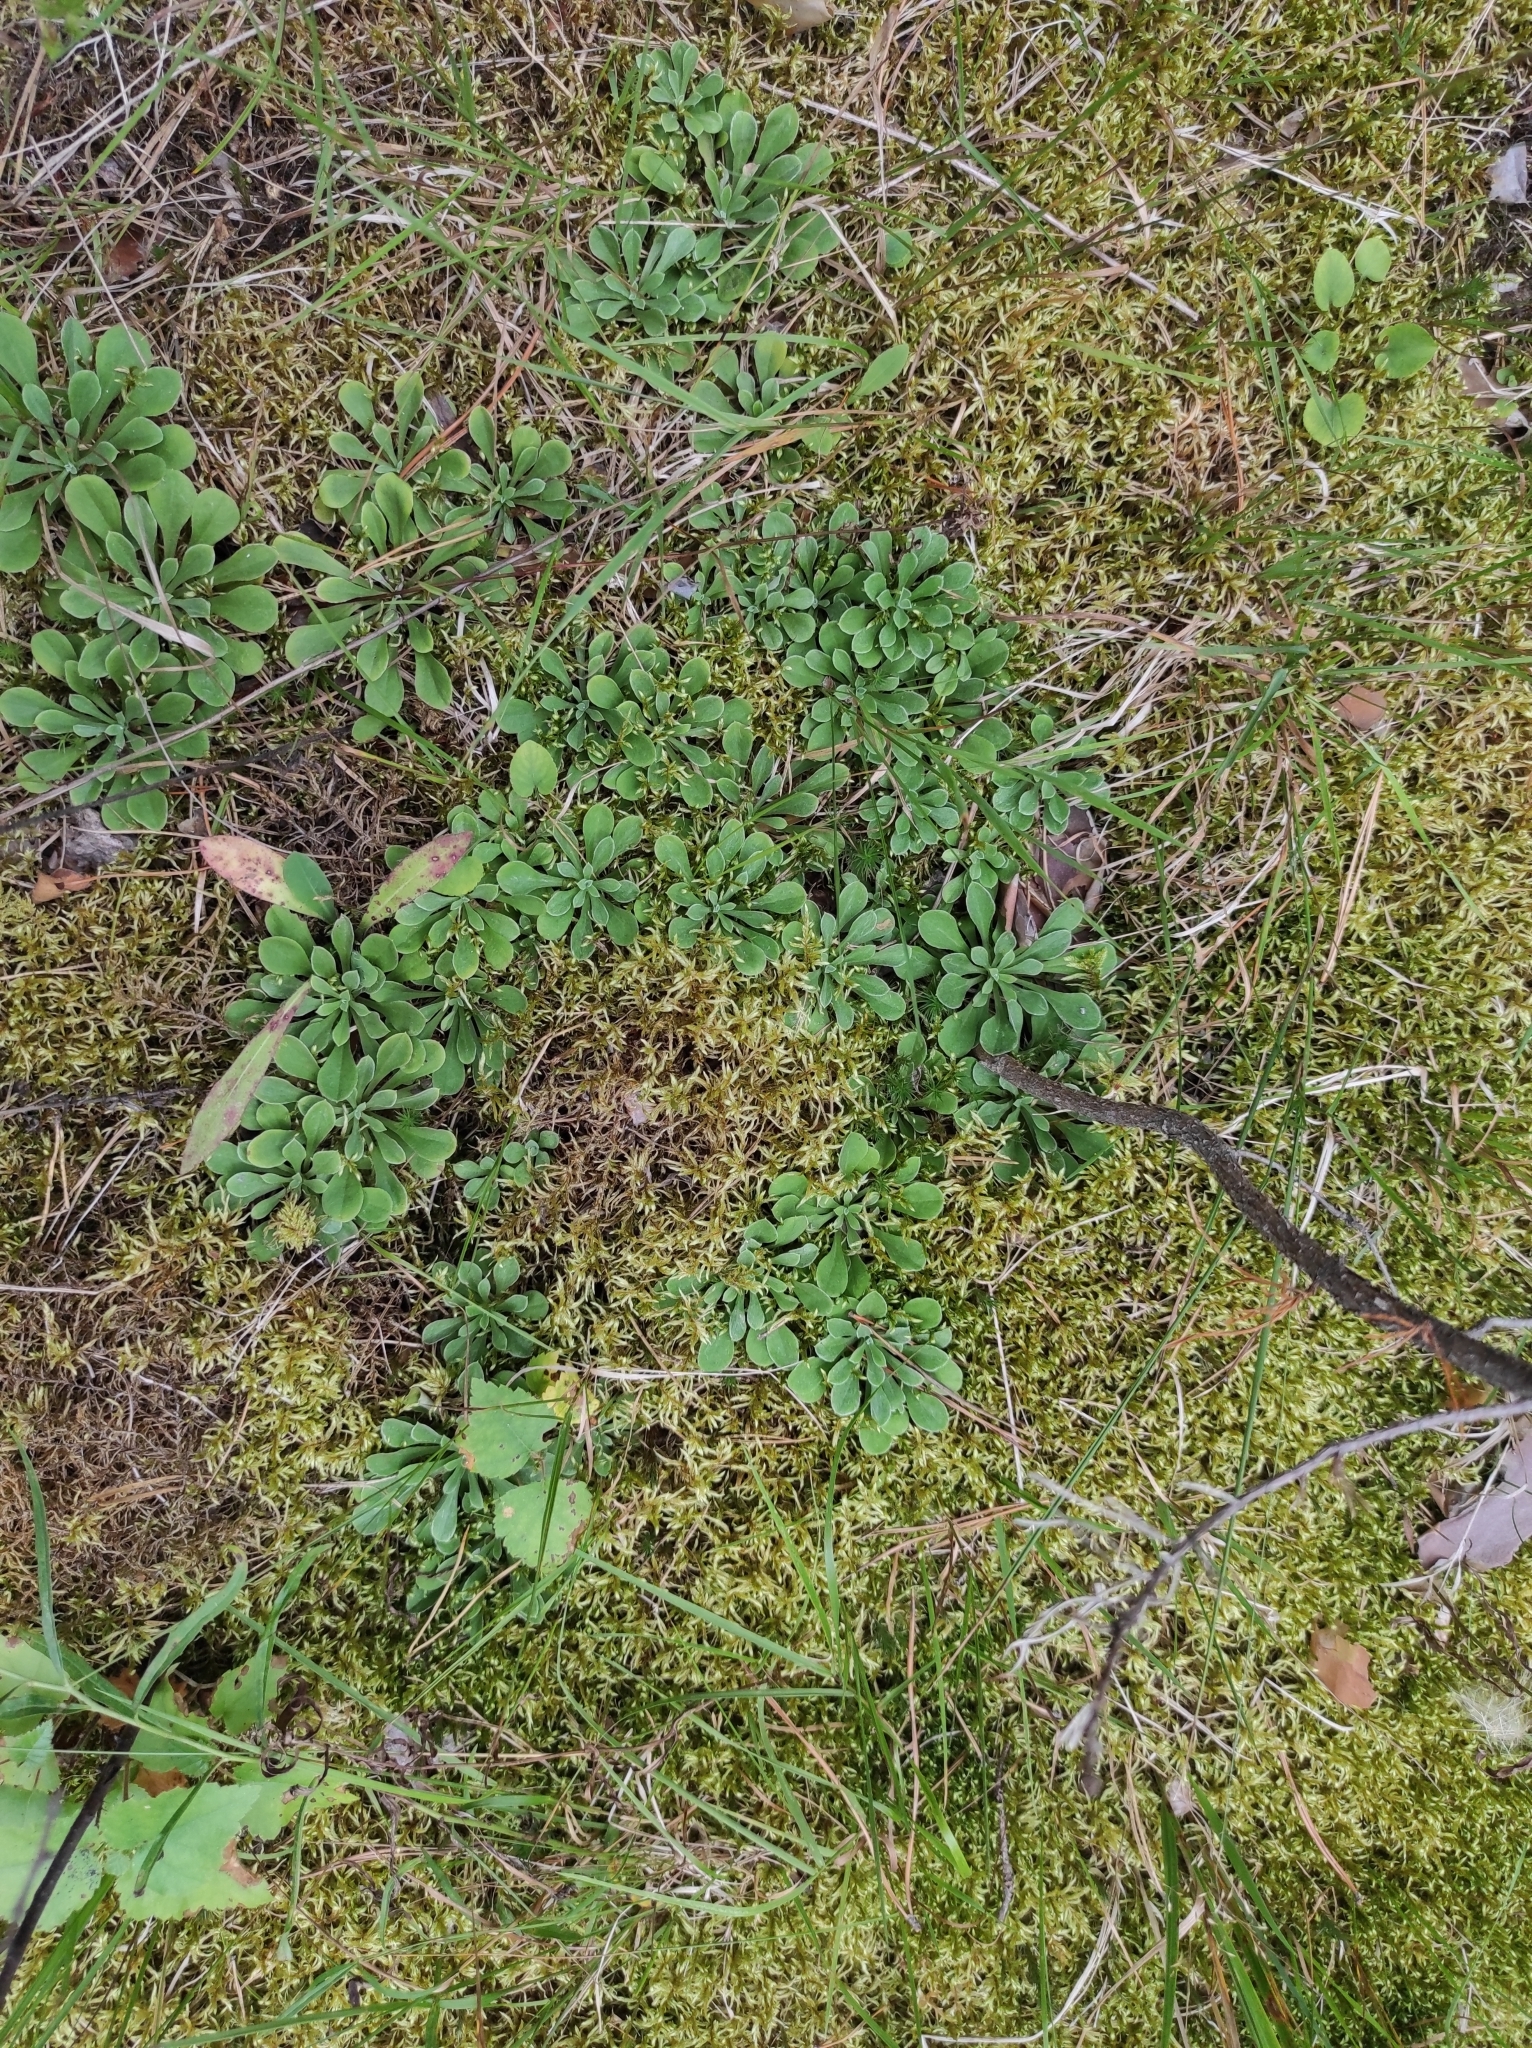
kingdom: Plantae
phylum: Tracheophyta
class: Magnoliopsida
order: Asterales
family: Asteraceae
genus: Antennaria
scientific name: Antennaria dioica
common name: Mountain everlasting
